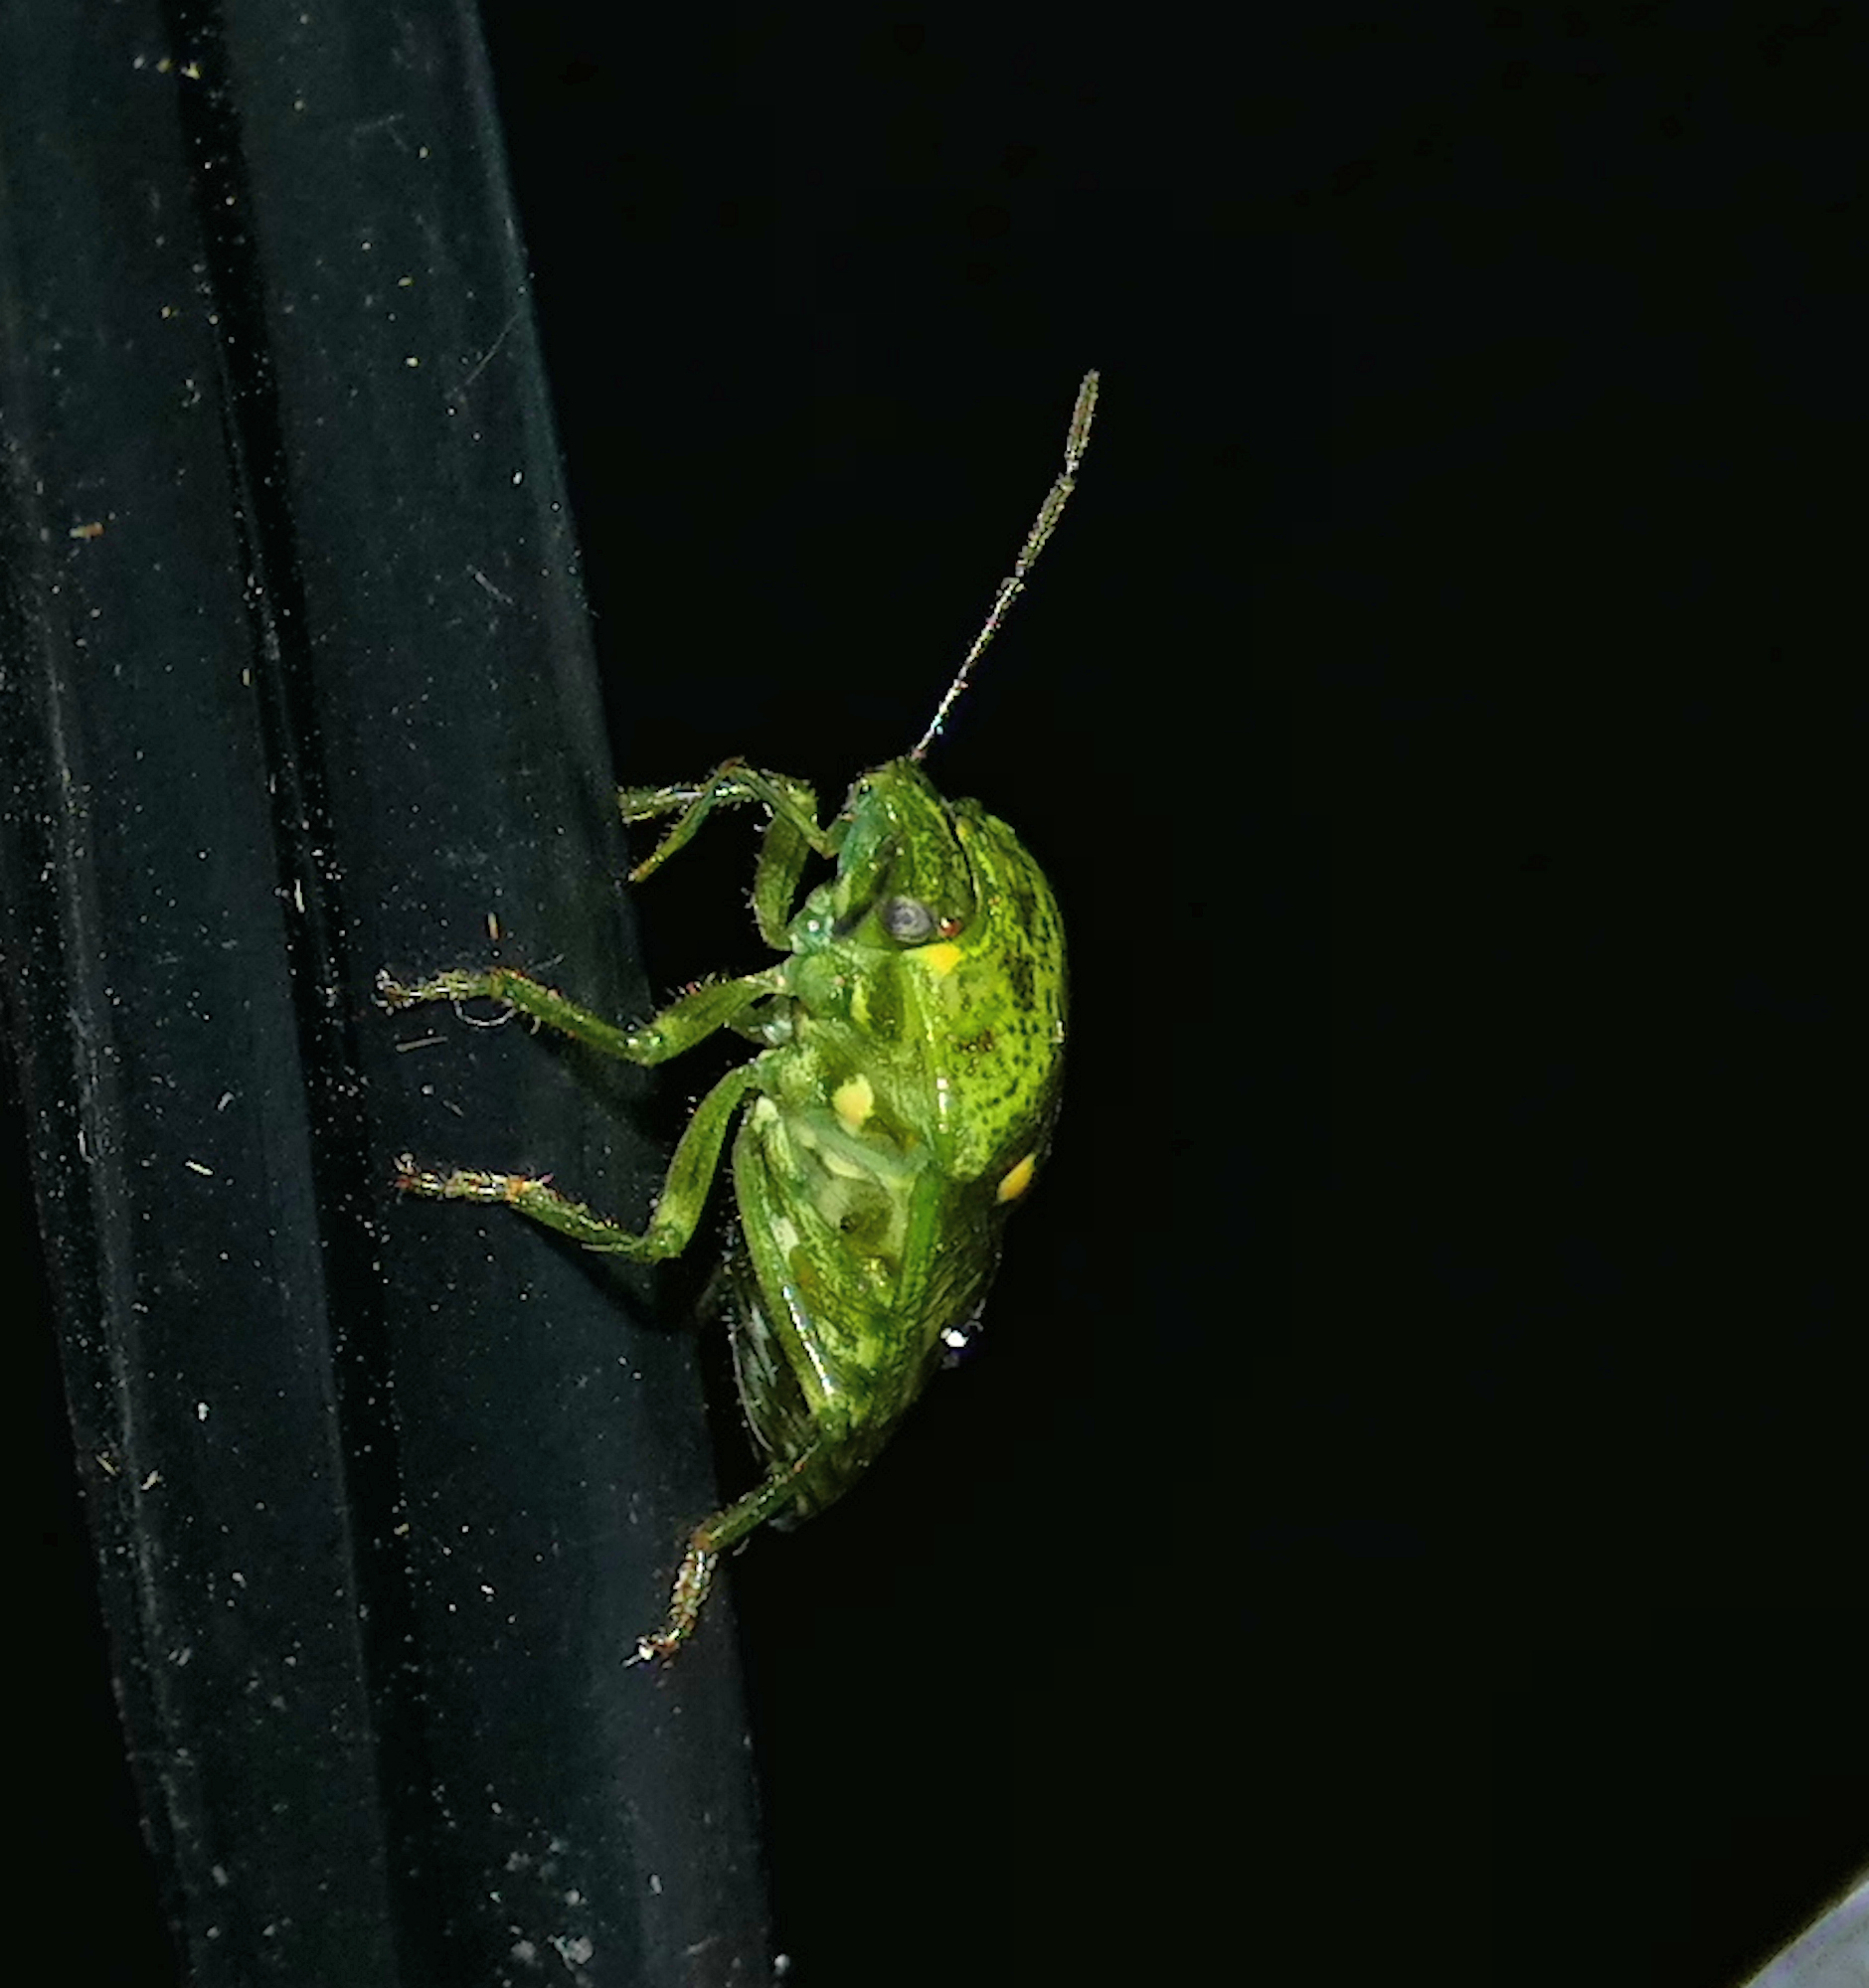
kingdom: Animalia
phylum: Arthropoda
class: Insecta
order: Hemiptera
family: Pentatomidae
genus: Banasa
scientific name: Banasa euchlora
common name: Cedar berry bug
